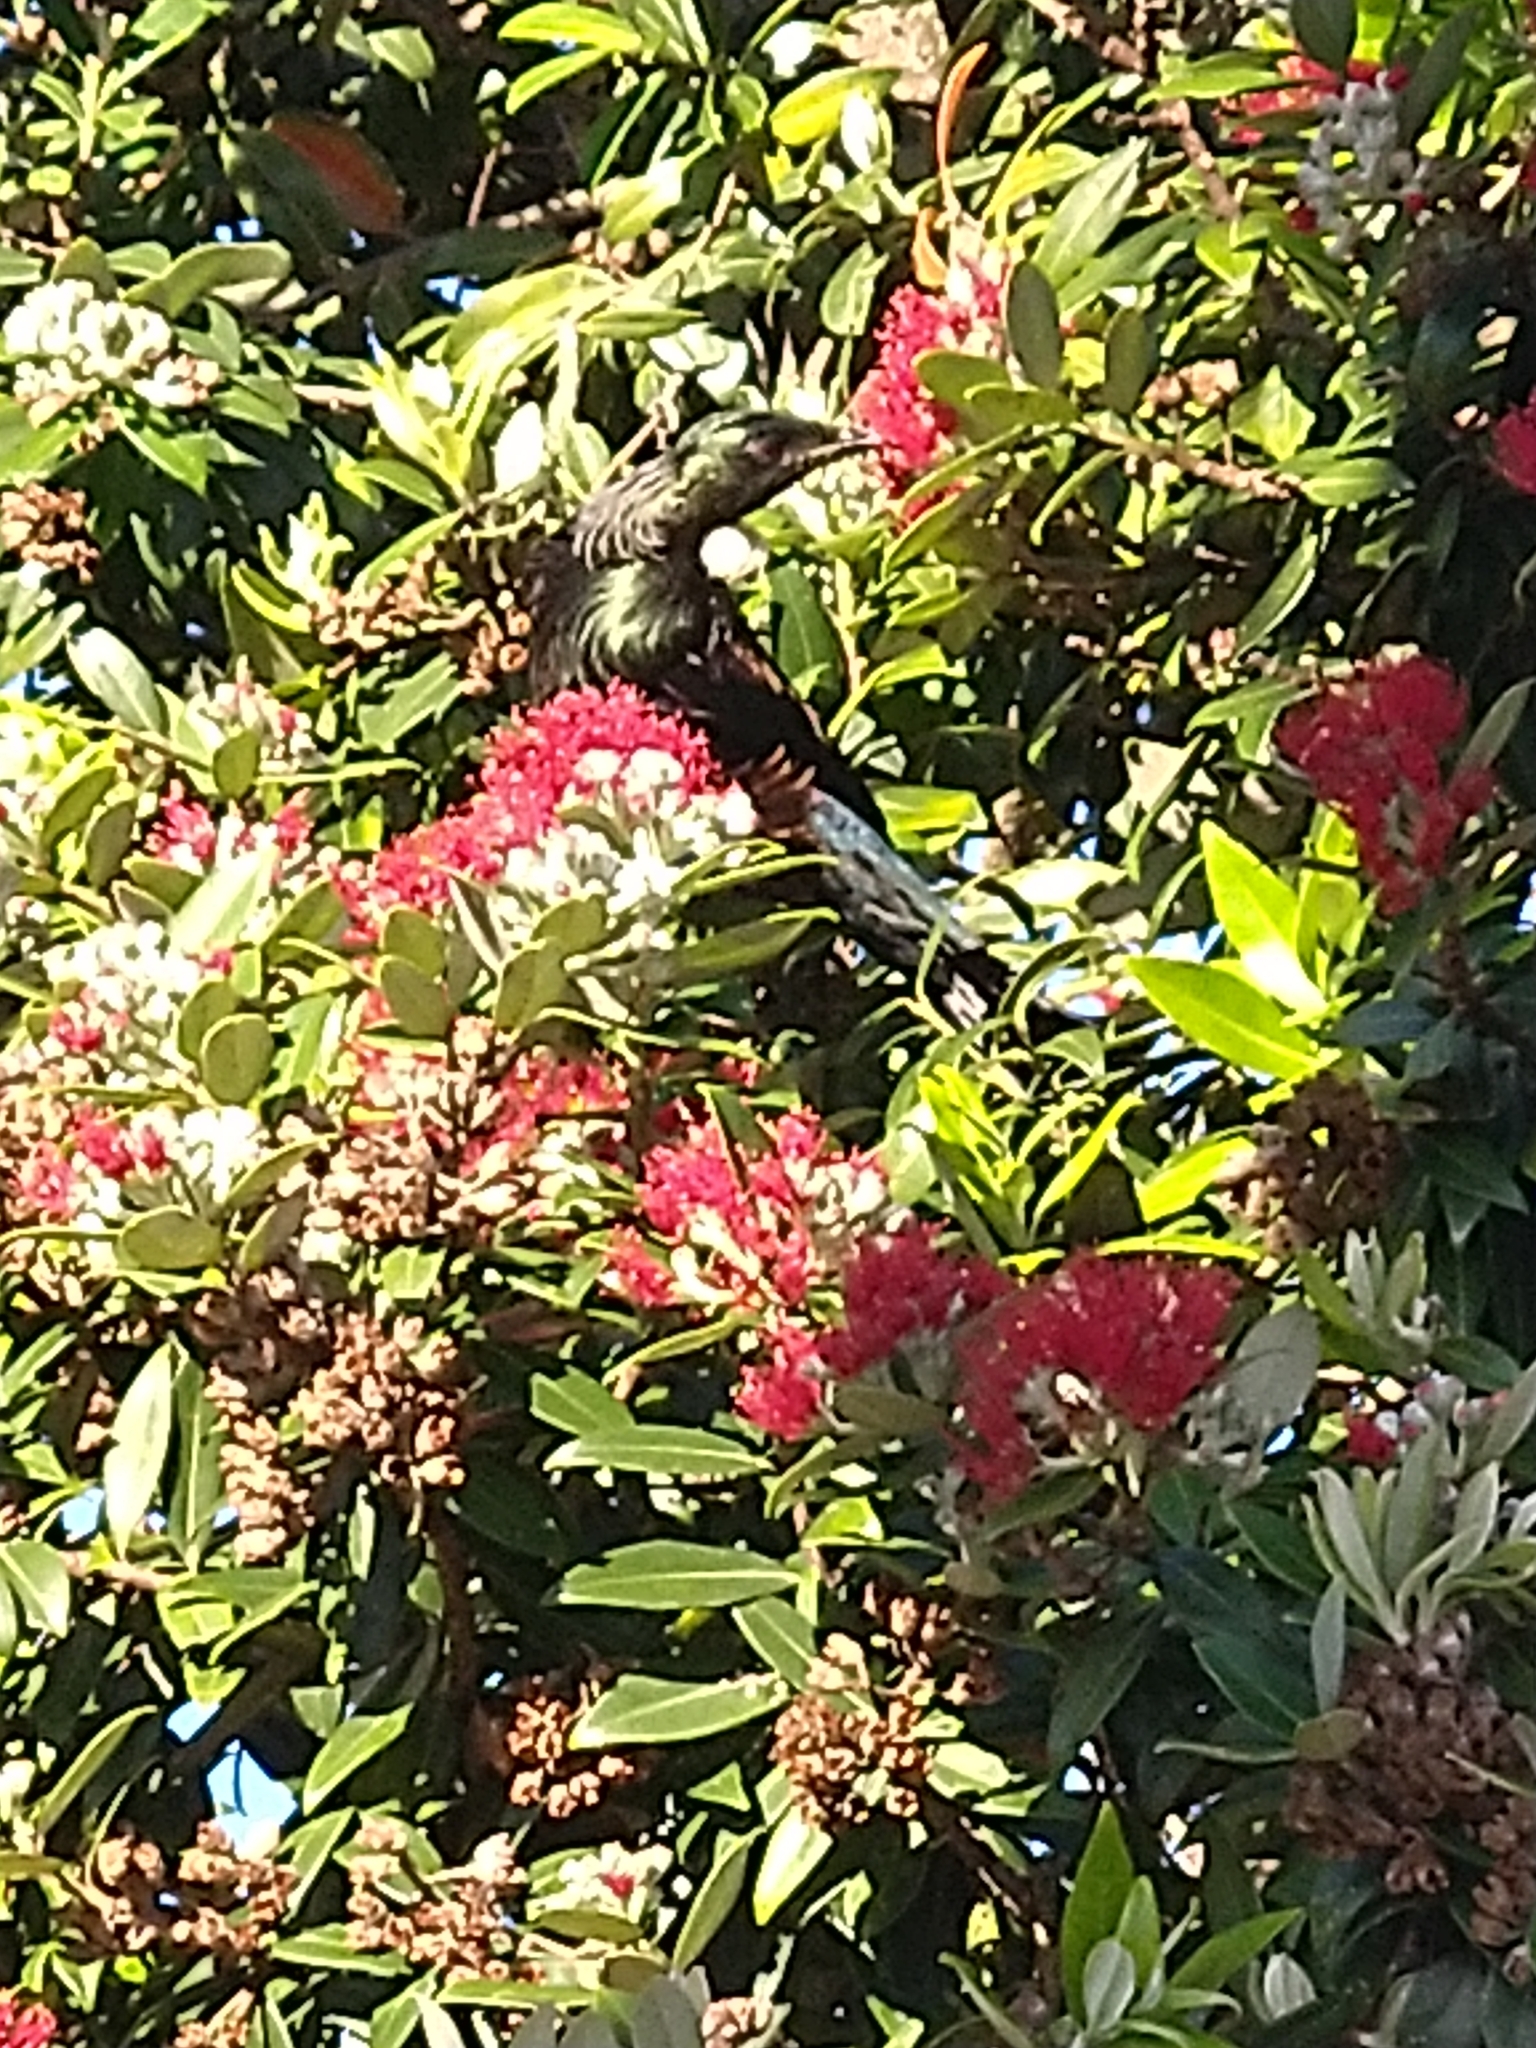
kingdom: Animalia
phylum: Chordata
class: Aves
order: Passeriformes
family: Meliphagidae
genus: Prosthemadera
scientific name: Prosthemadera novaeseelandiae
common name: Tui
